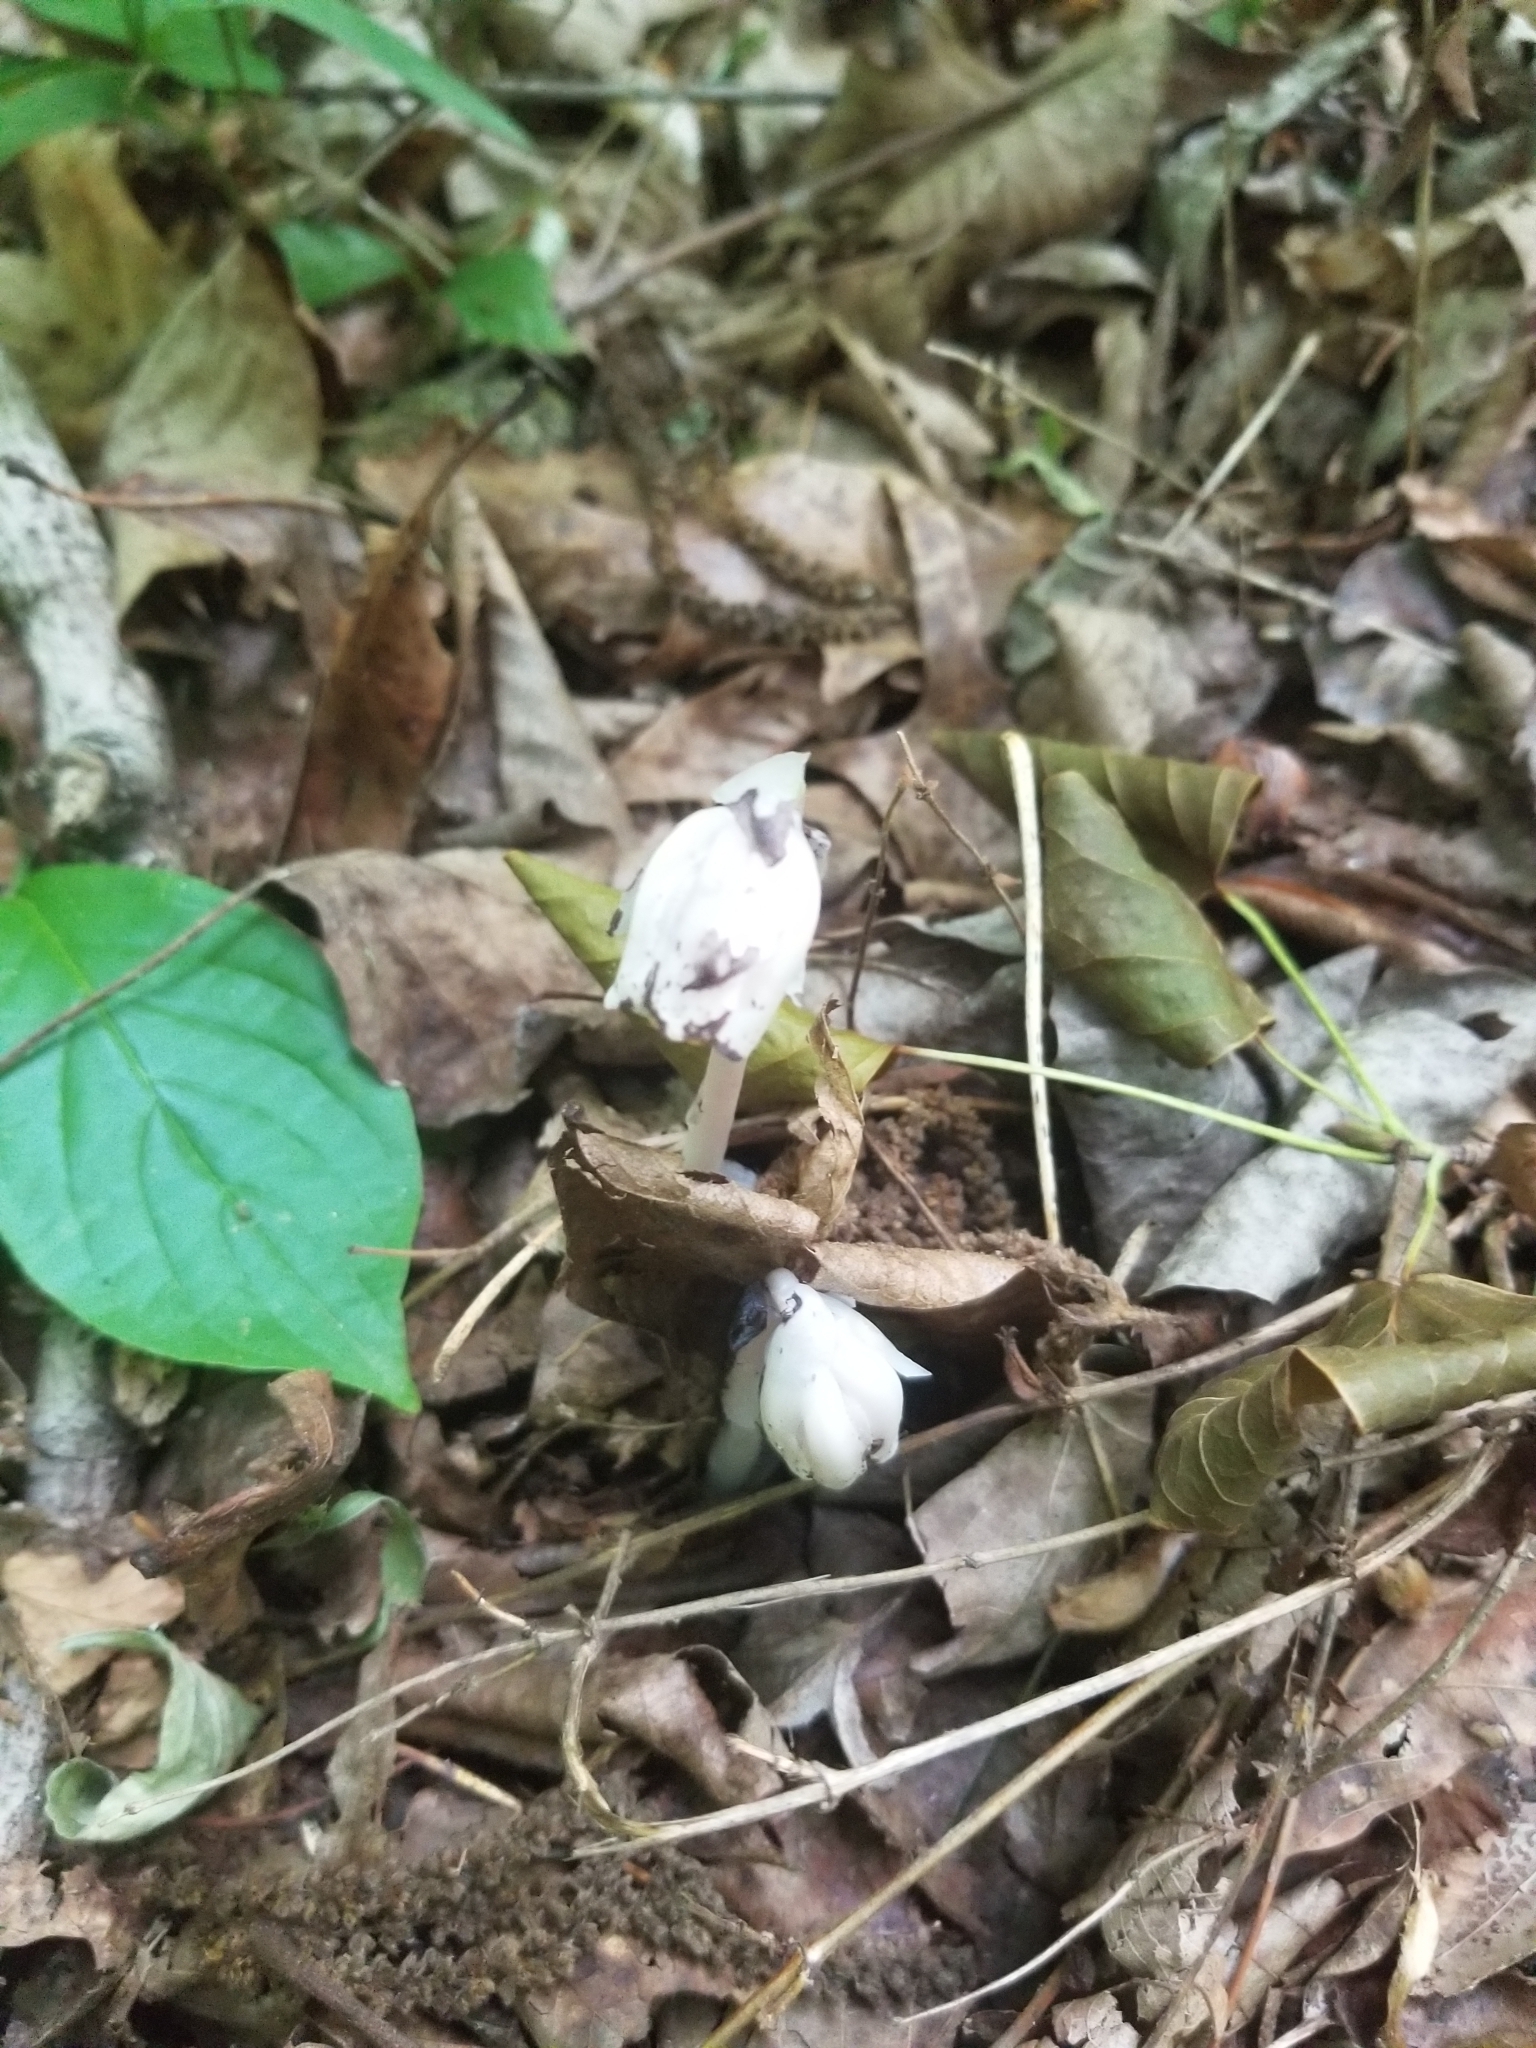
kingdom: Plantae
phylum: Tracheophyta
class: Magnoliopsida
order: Ericales
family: Ericaceae
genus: Monotropa
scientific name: Monotropa uniflora
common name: Convulsion root
